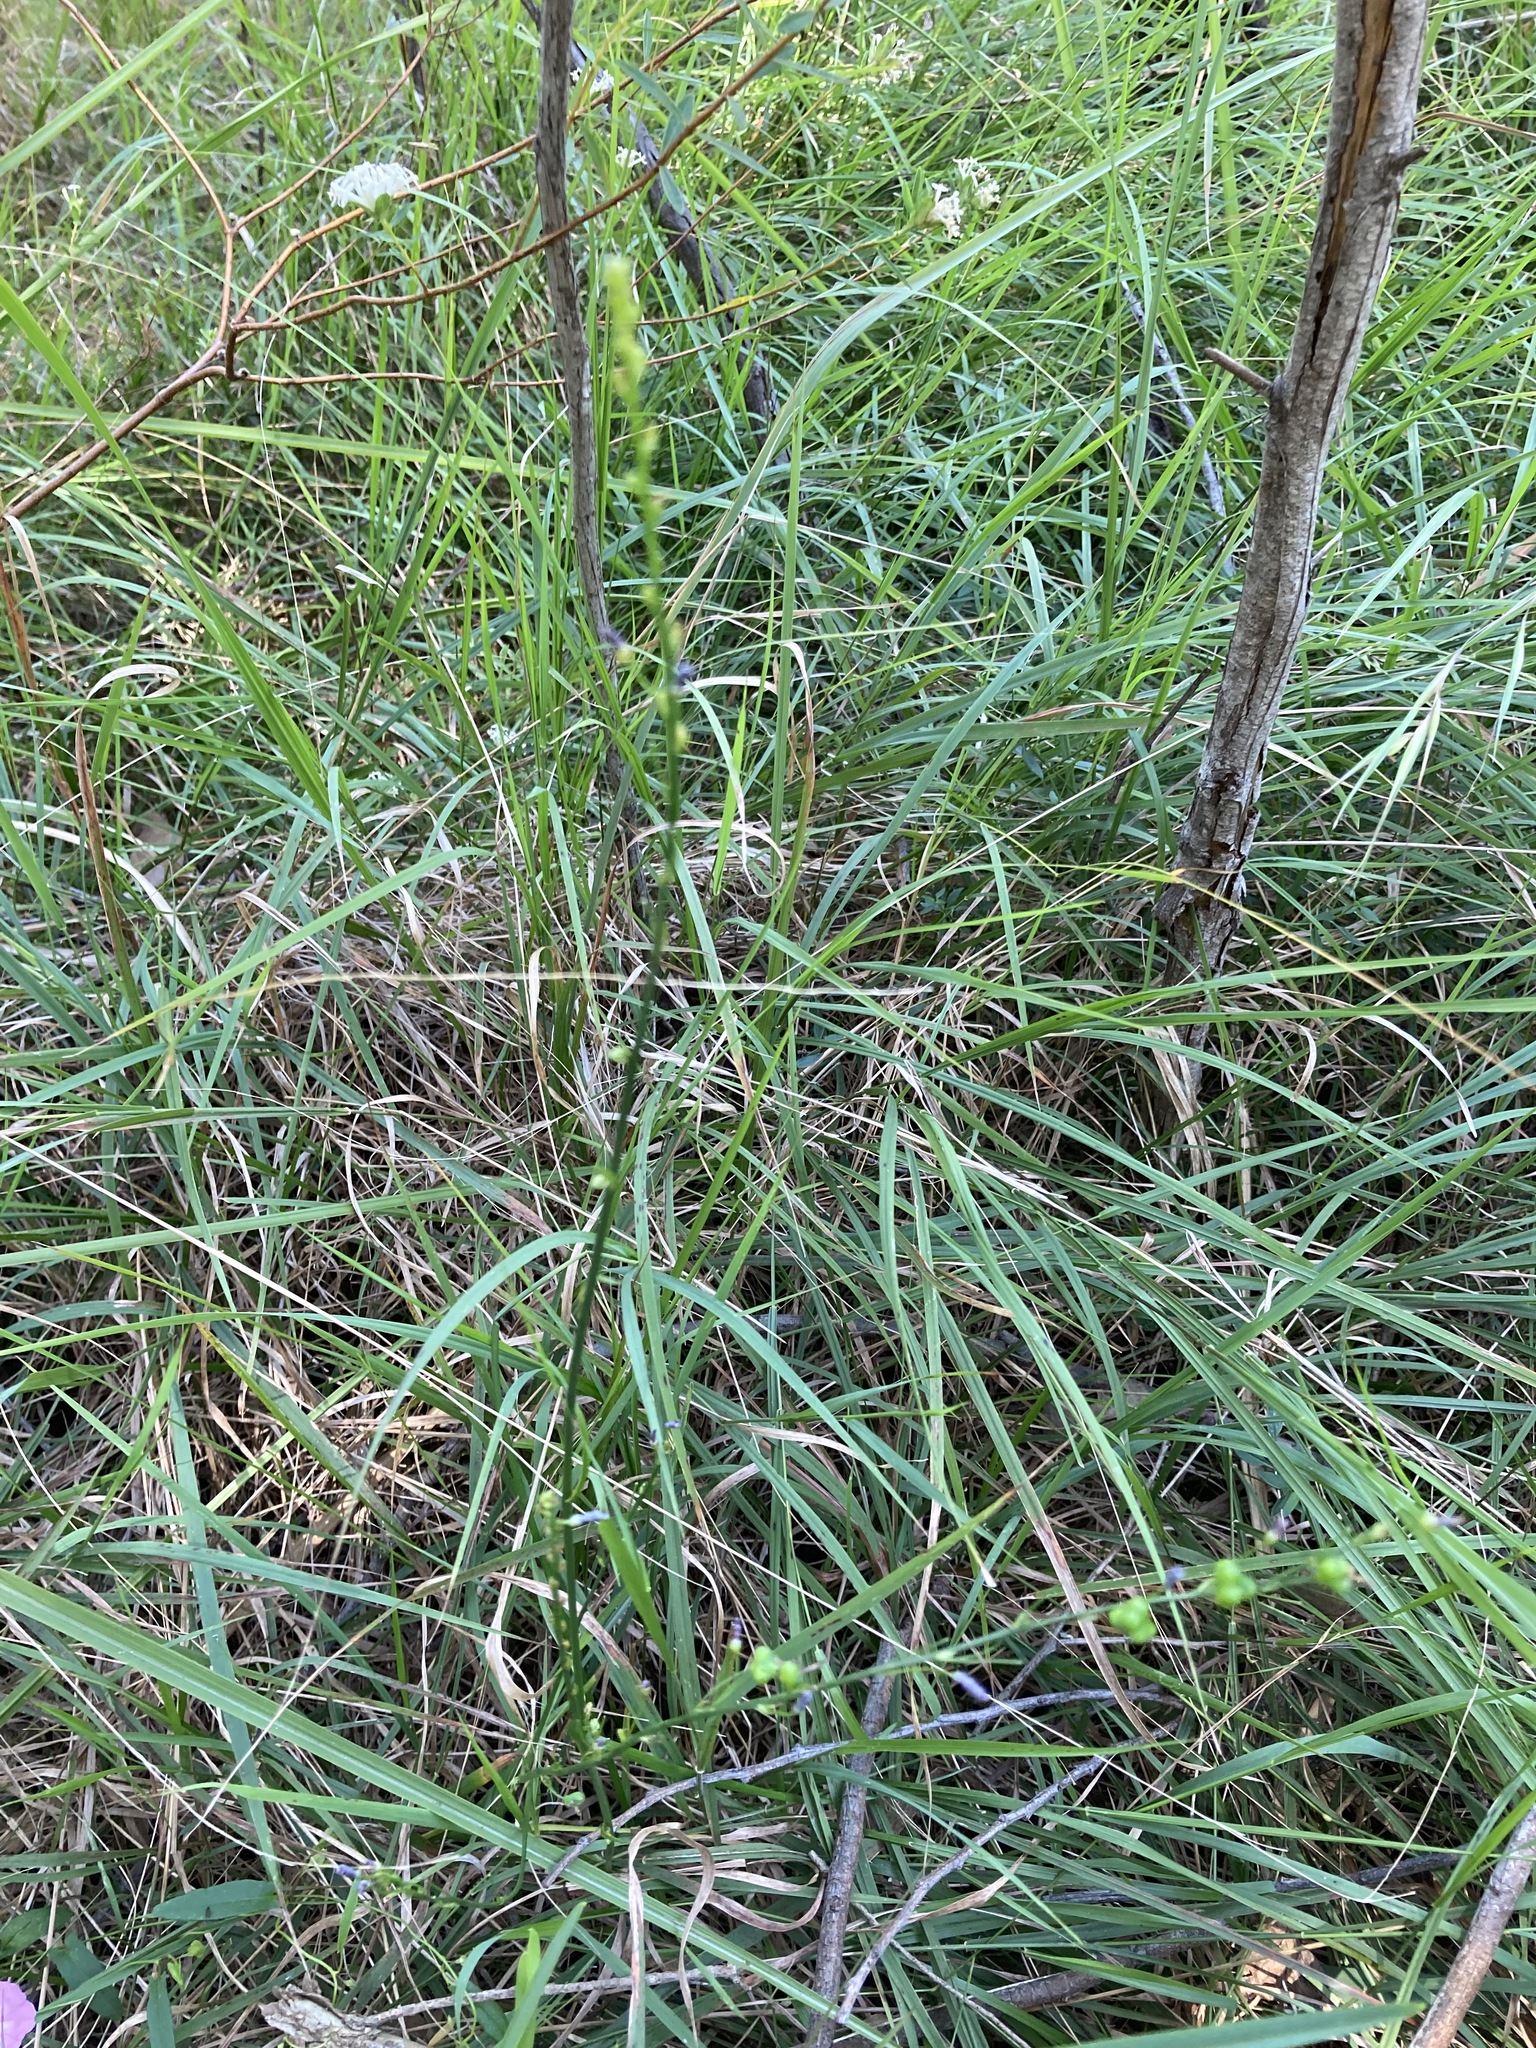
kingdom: Plantae
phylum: Tracheophyta
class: Liliopsida
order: Asparagales
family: Asphodelaceae
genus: Caesia
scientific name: Caesia parviflora
